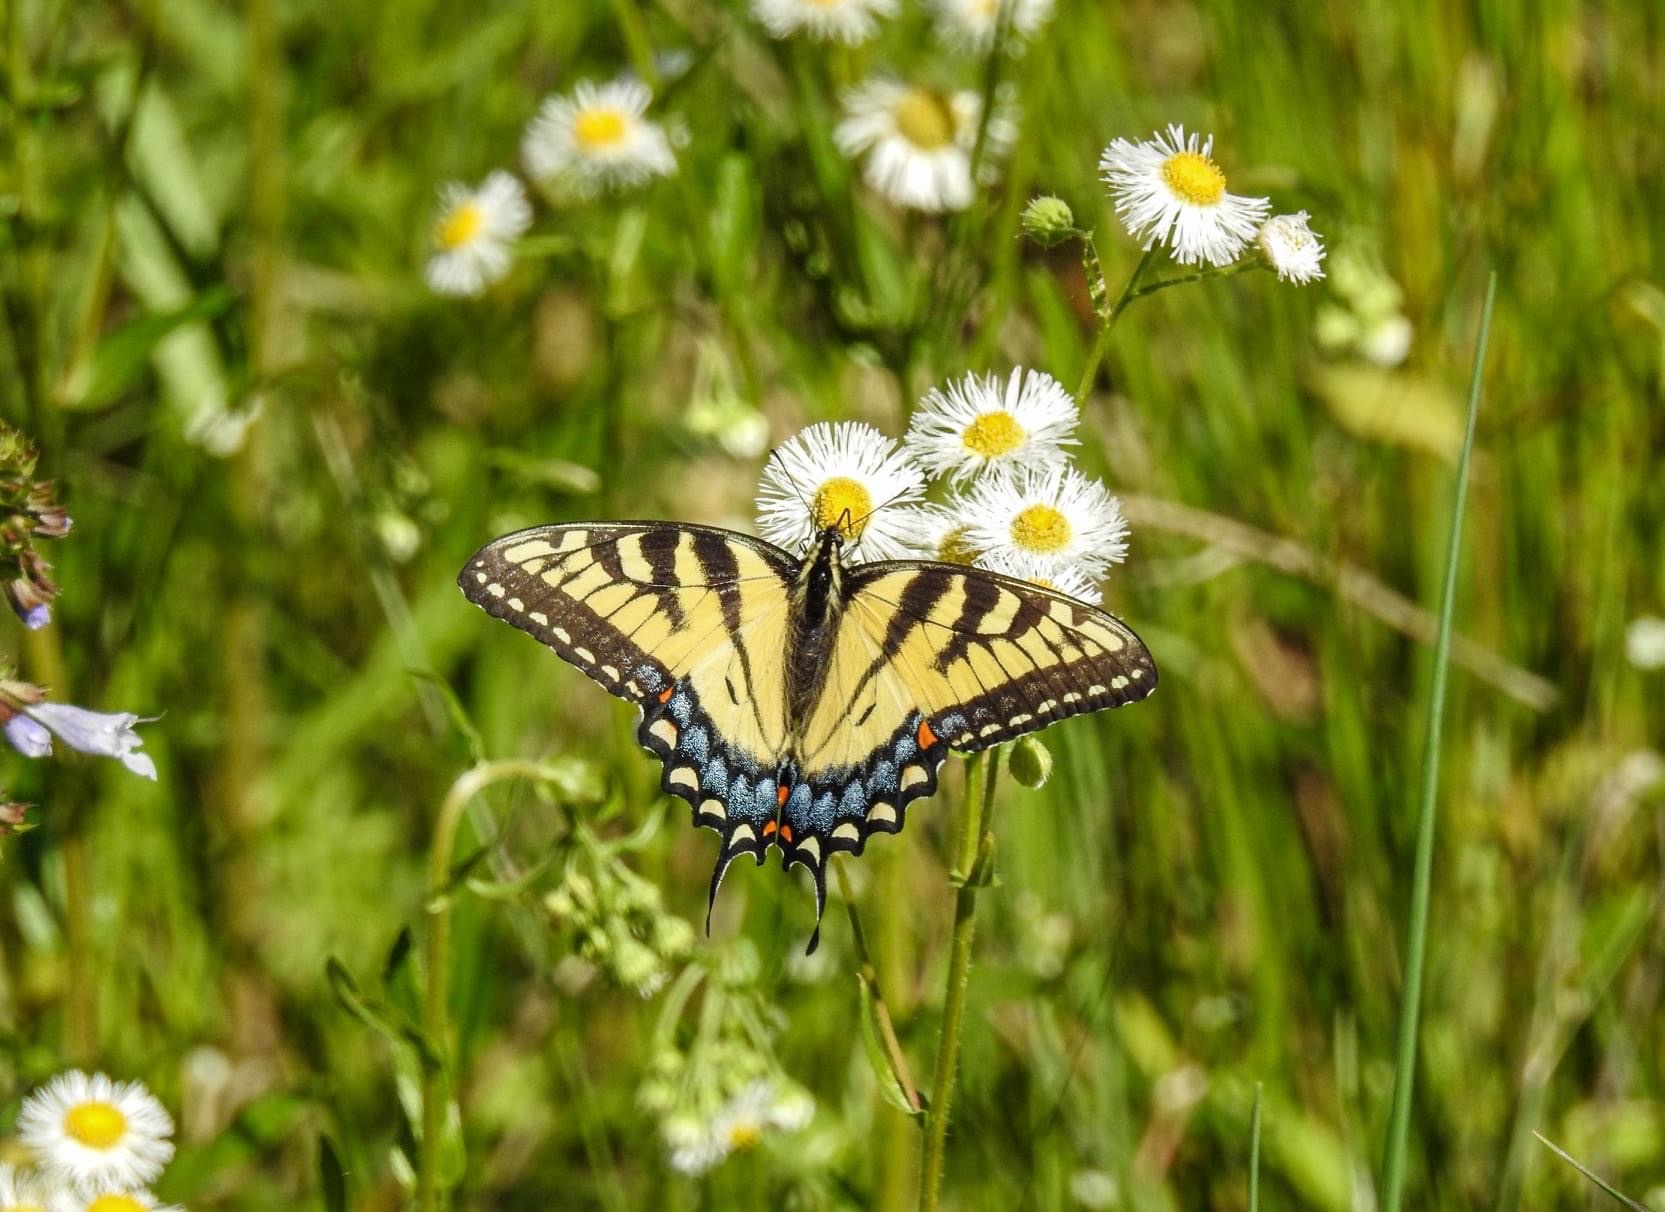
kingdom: Animalia
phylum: Arthropoda
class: Insecta
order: Lepidoptera
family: Papilionidae
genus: Papilio
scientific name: Papilio glaucus
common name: Tiger swallowtail
